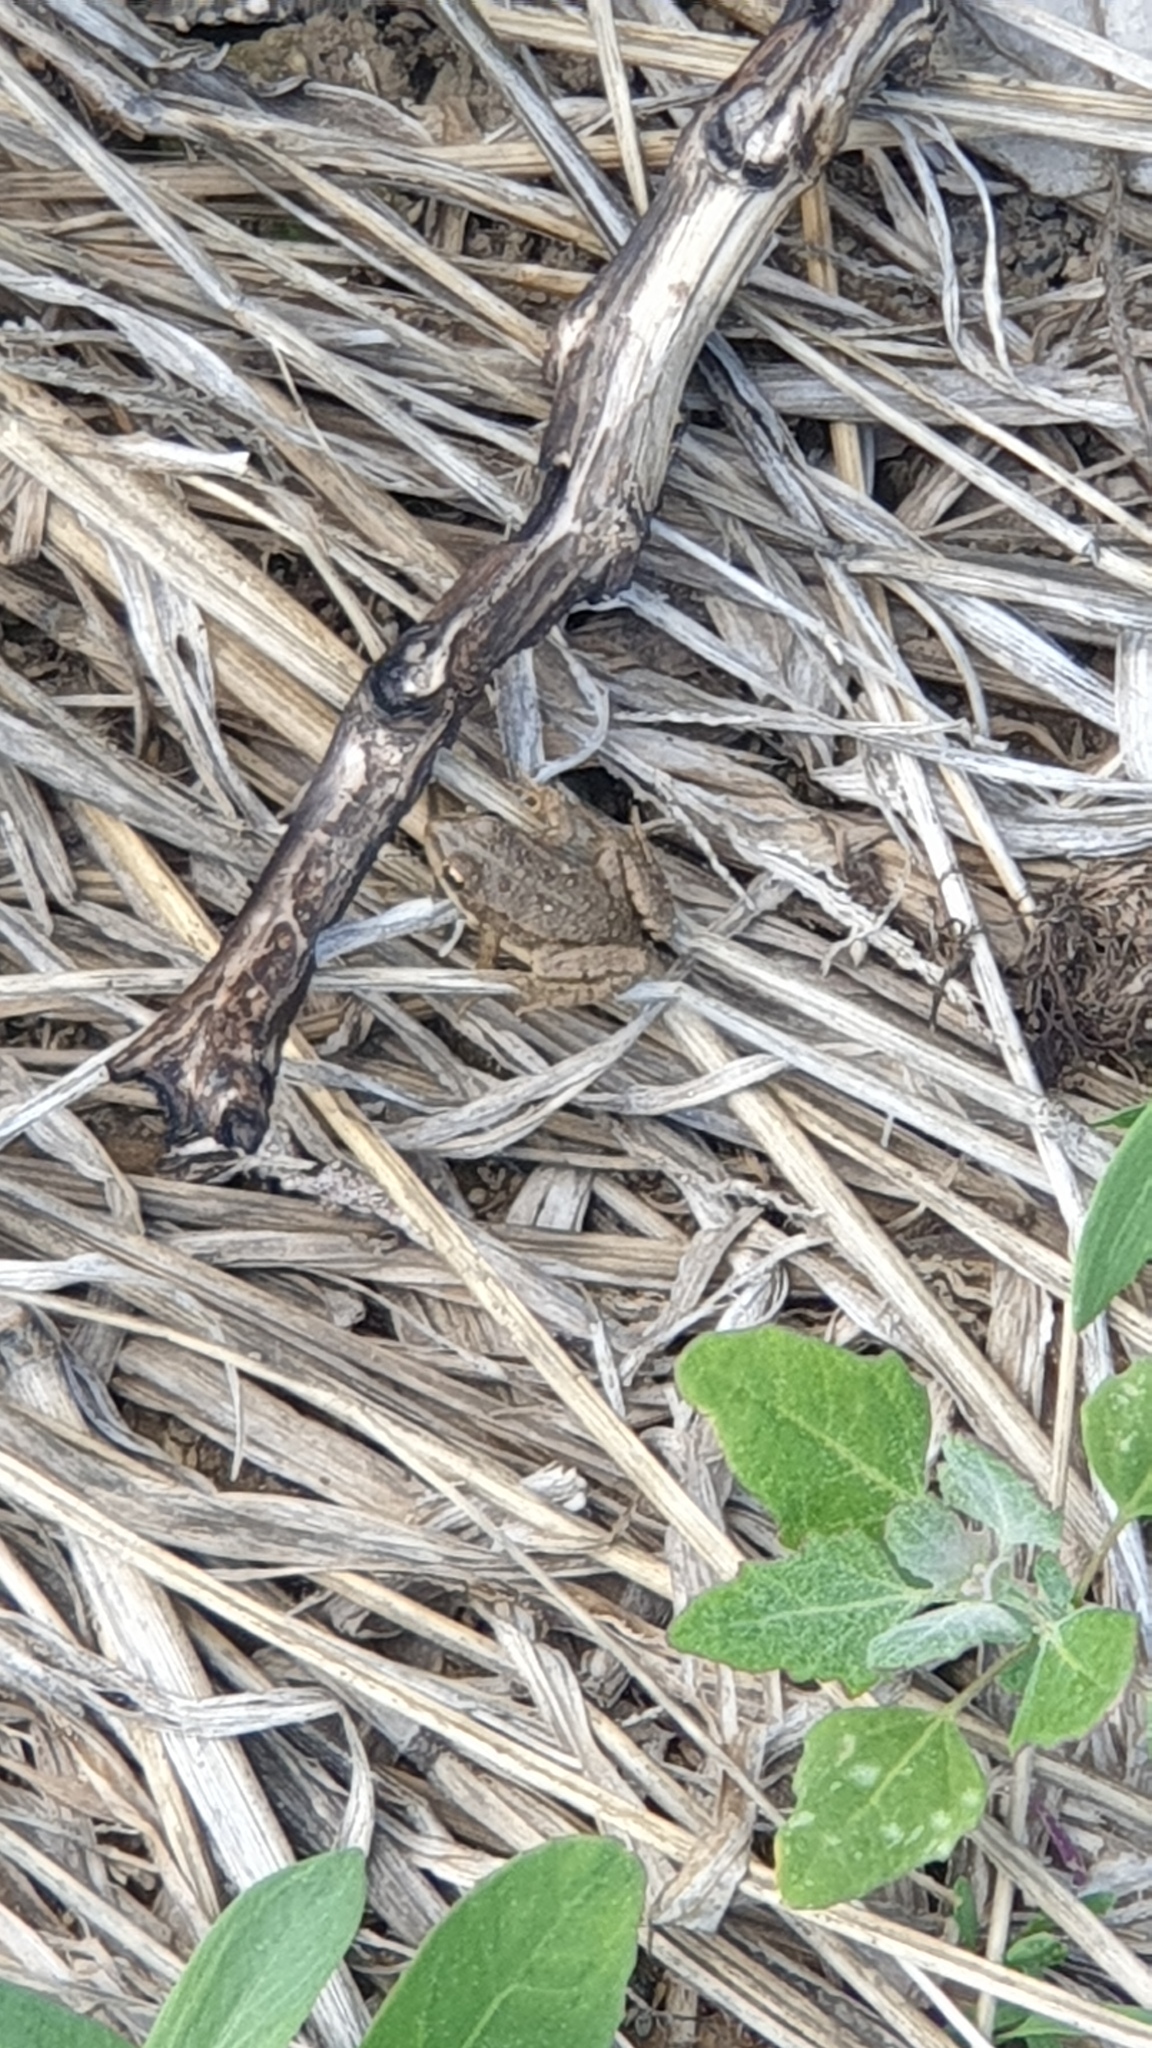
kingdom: Animalia
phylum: Chordata
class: Amphibia
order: Anura
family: Ranidae
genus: Pelophylax
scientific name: Pelophylax ridibundus
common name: Marsh frog
